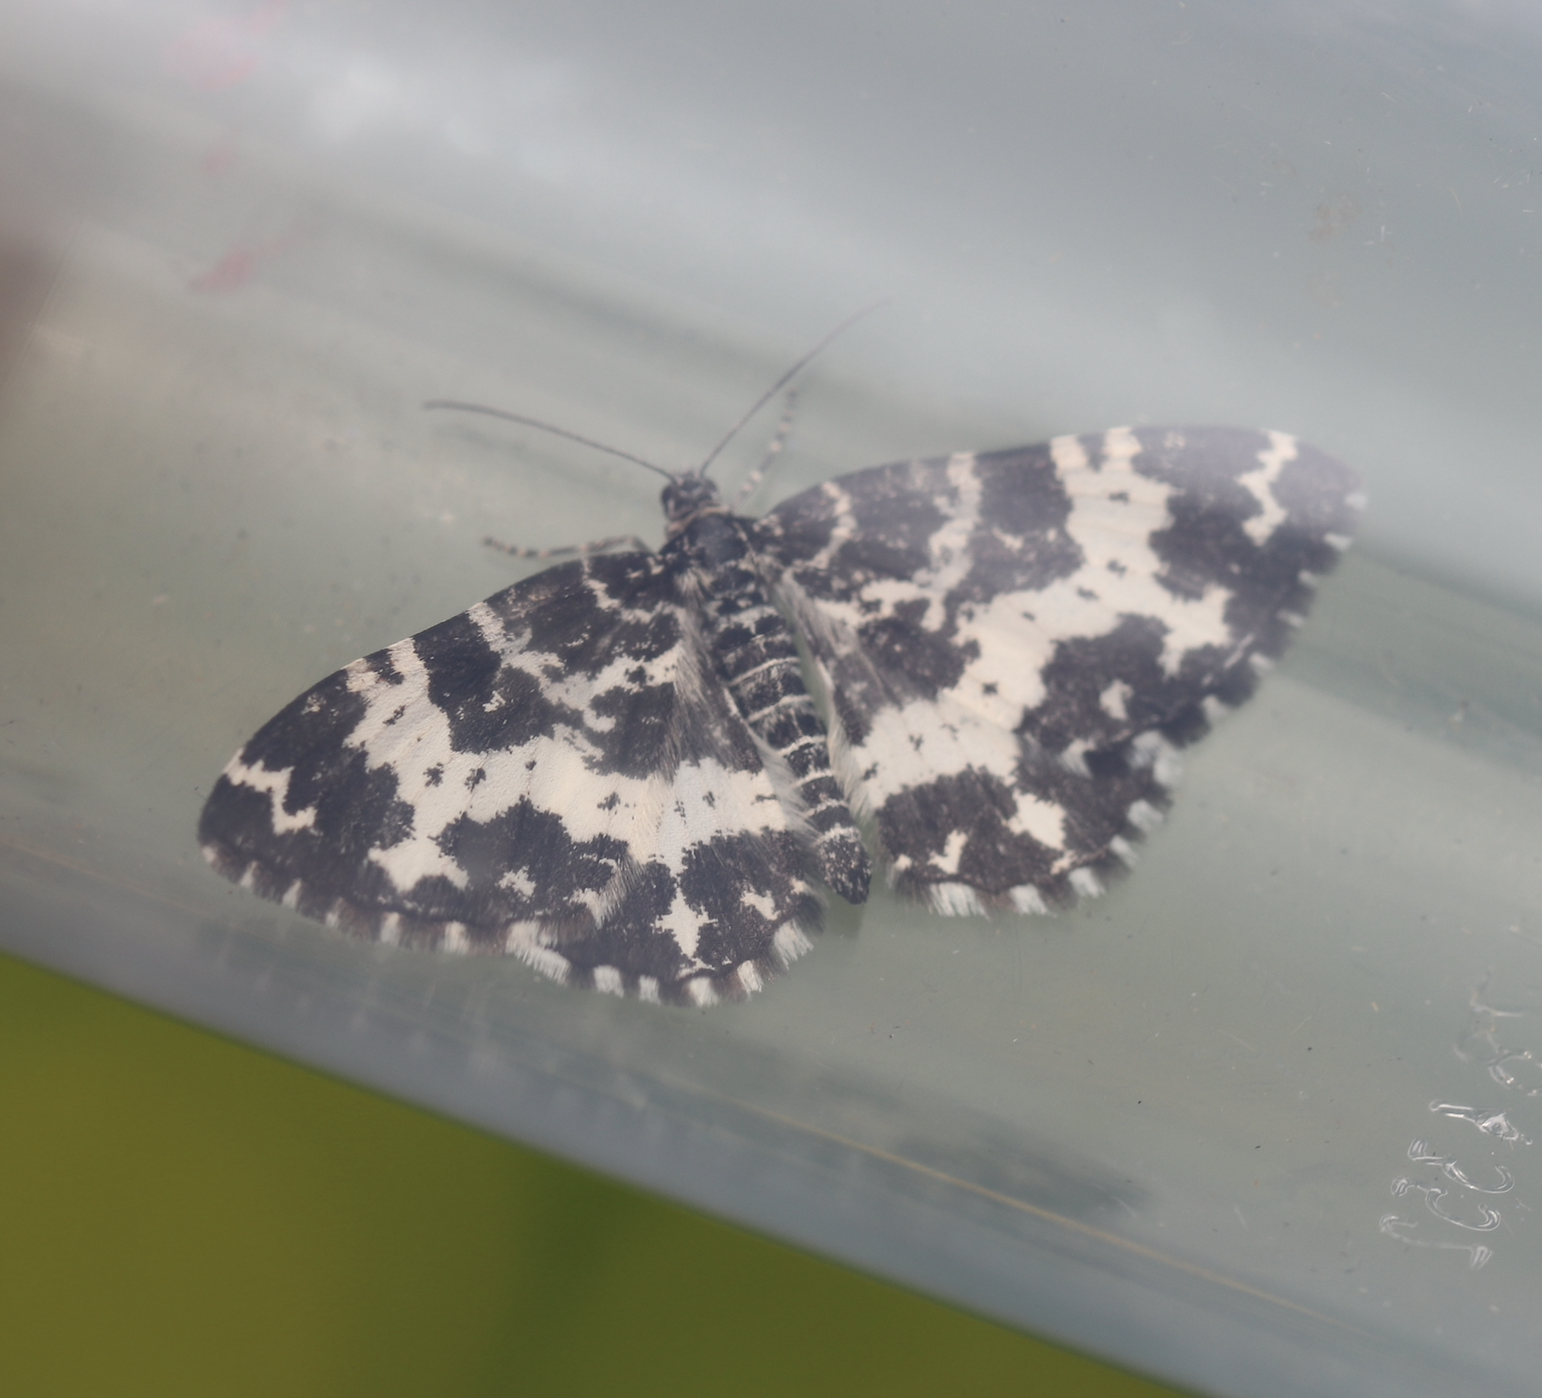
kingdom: Animalia
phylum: Arthropoda
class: Insecta
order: Lepidoptera
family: Geometridae
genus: Rheumaptera
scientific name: Rheumaptera hastata
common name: Argent & sable
